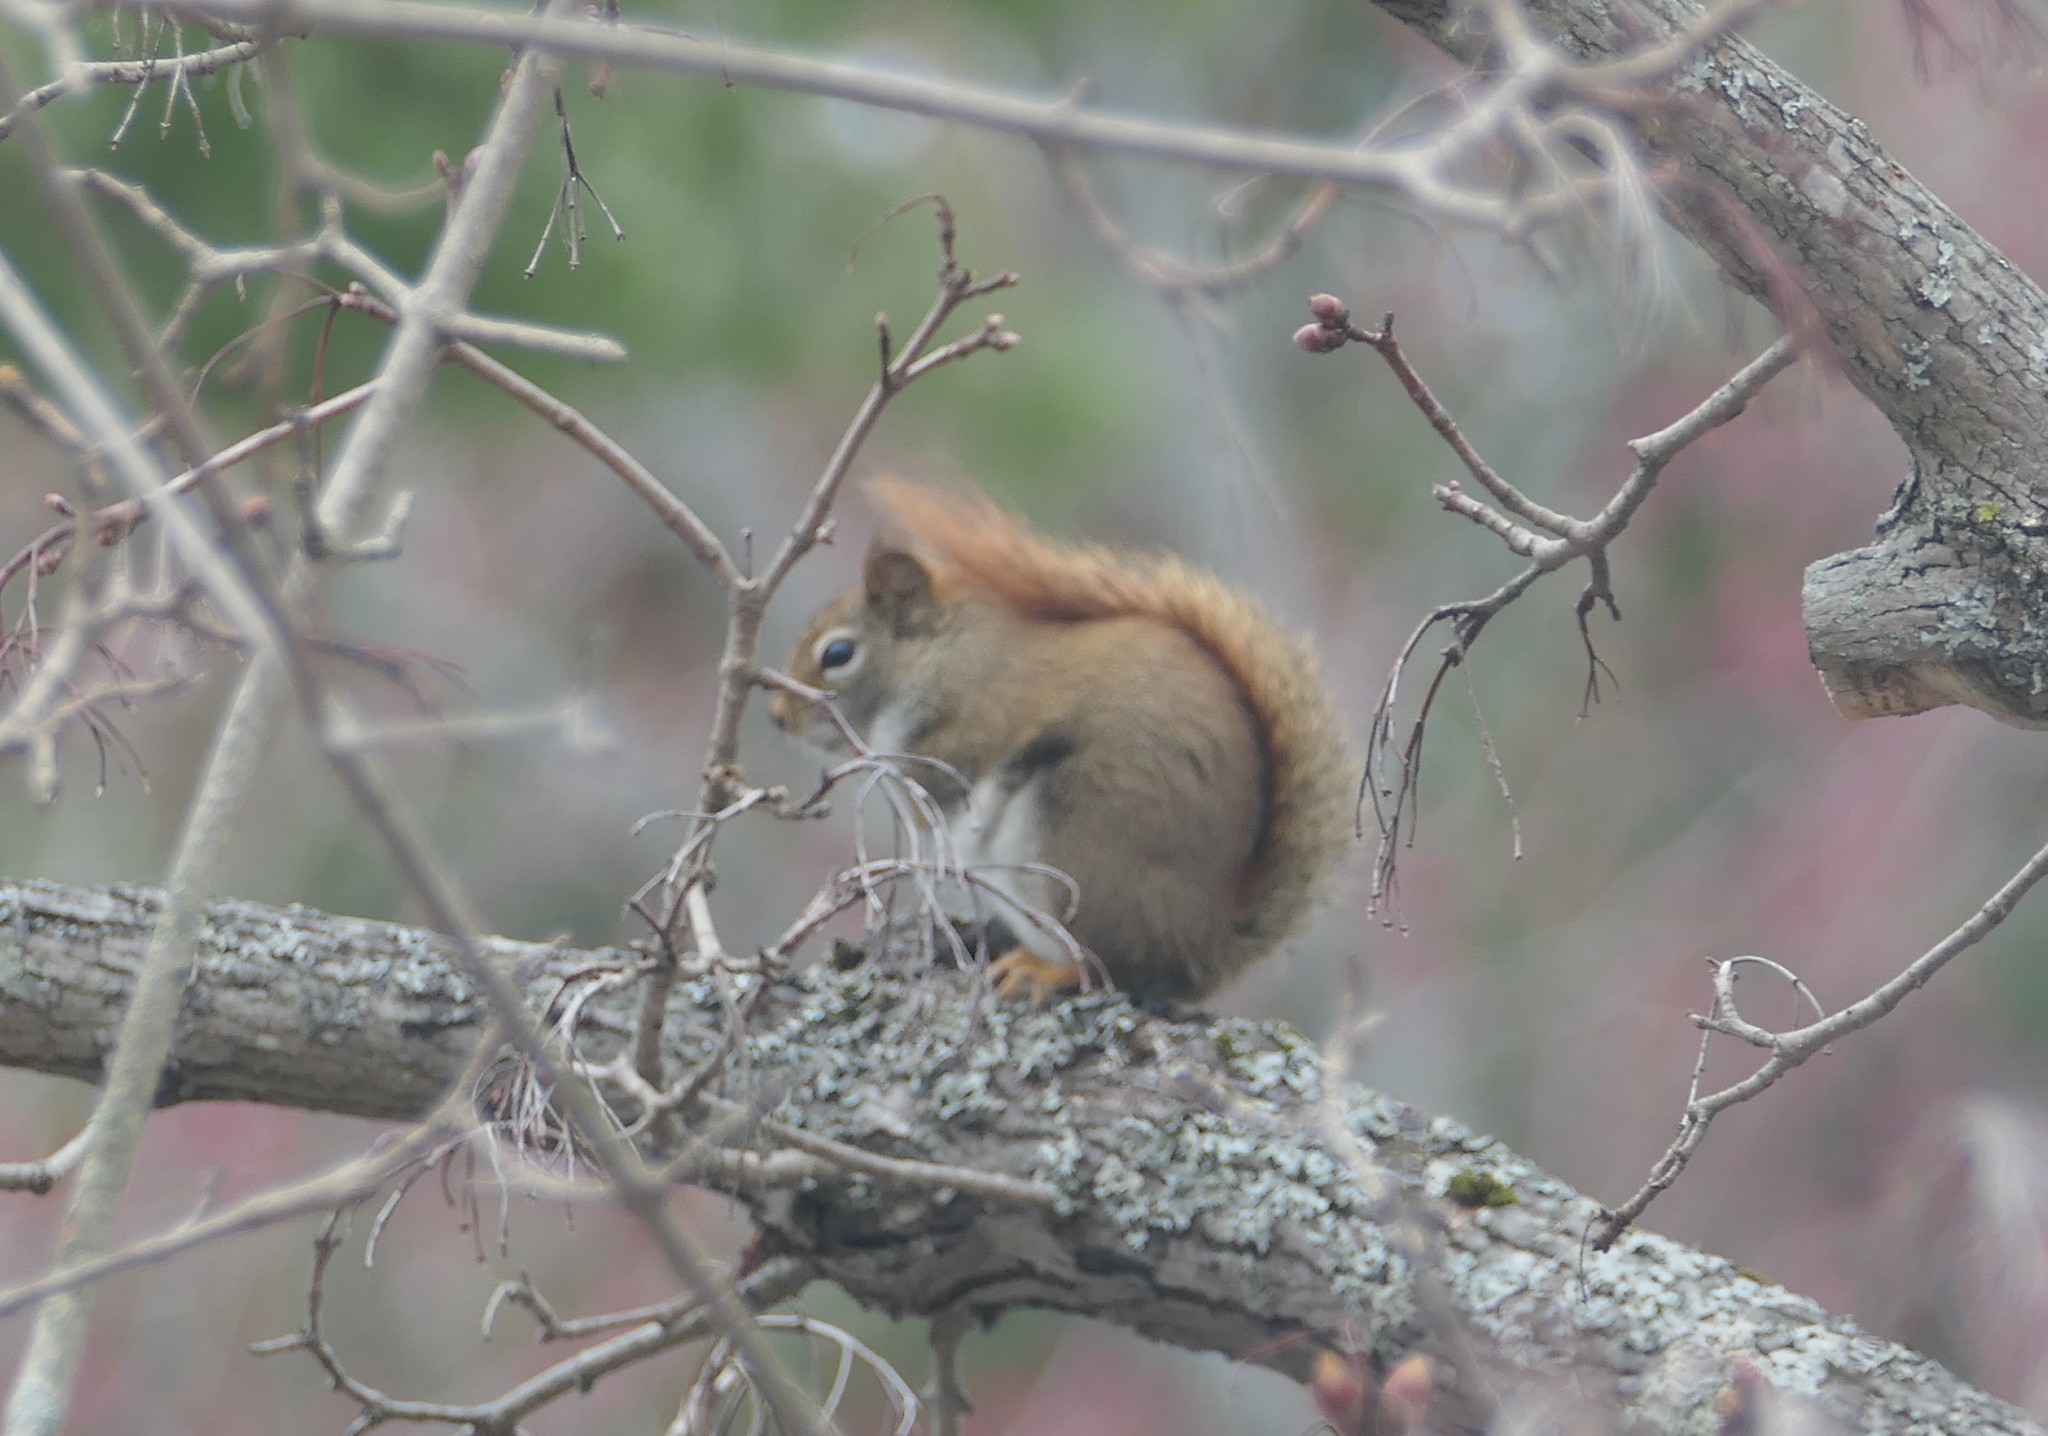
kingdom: Animalia
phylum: Chordata
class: Mammalia
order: Rodentia
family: Sciuridae
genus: Tamiasciurus
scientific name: Tamiasciurus hudsonicus
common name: Red squirrel
